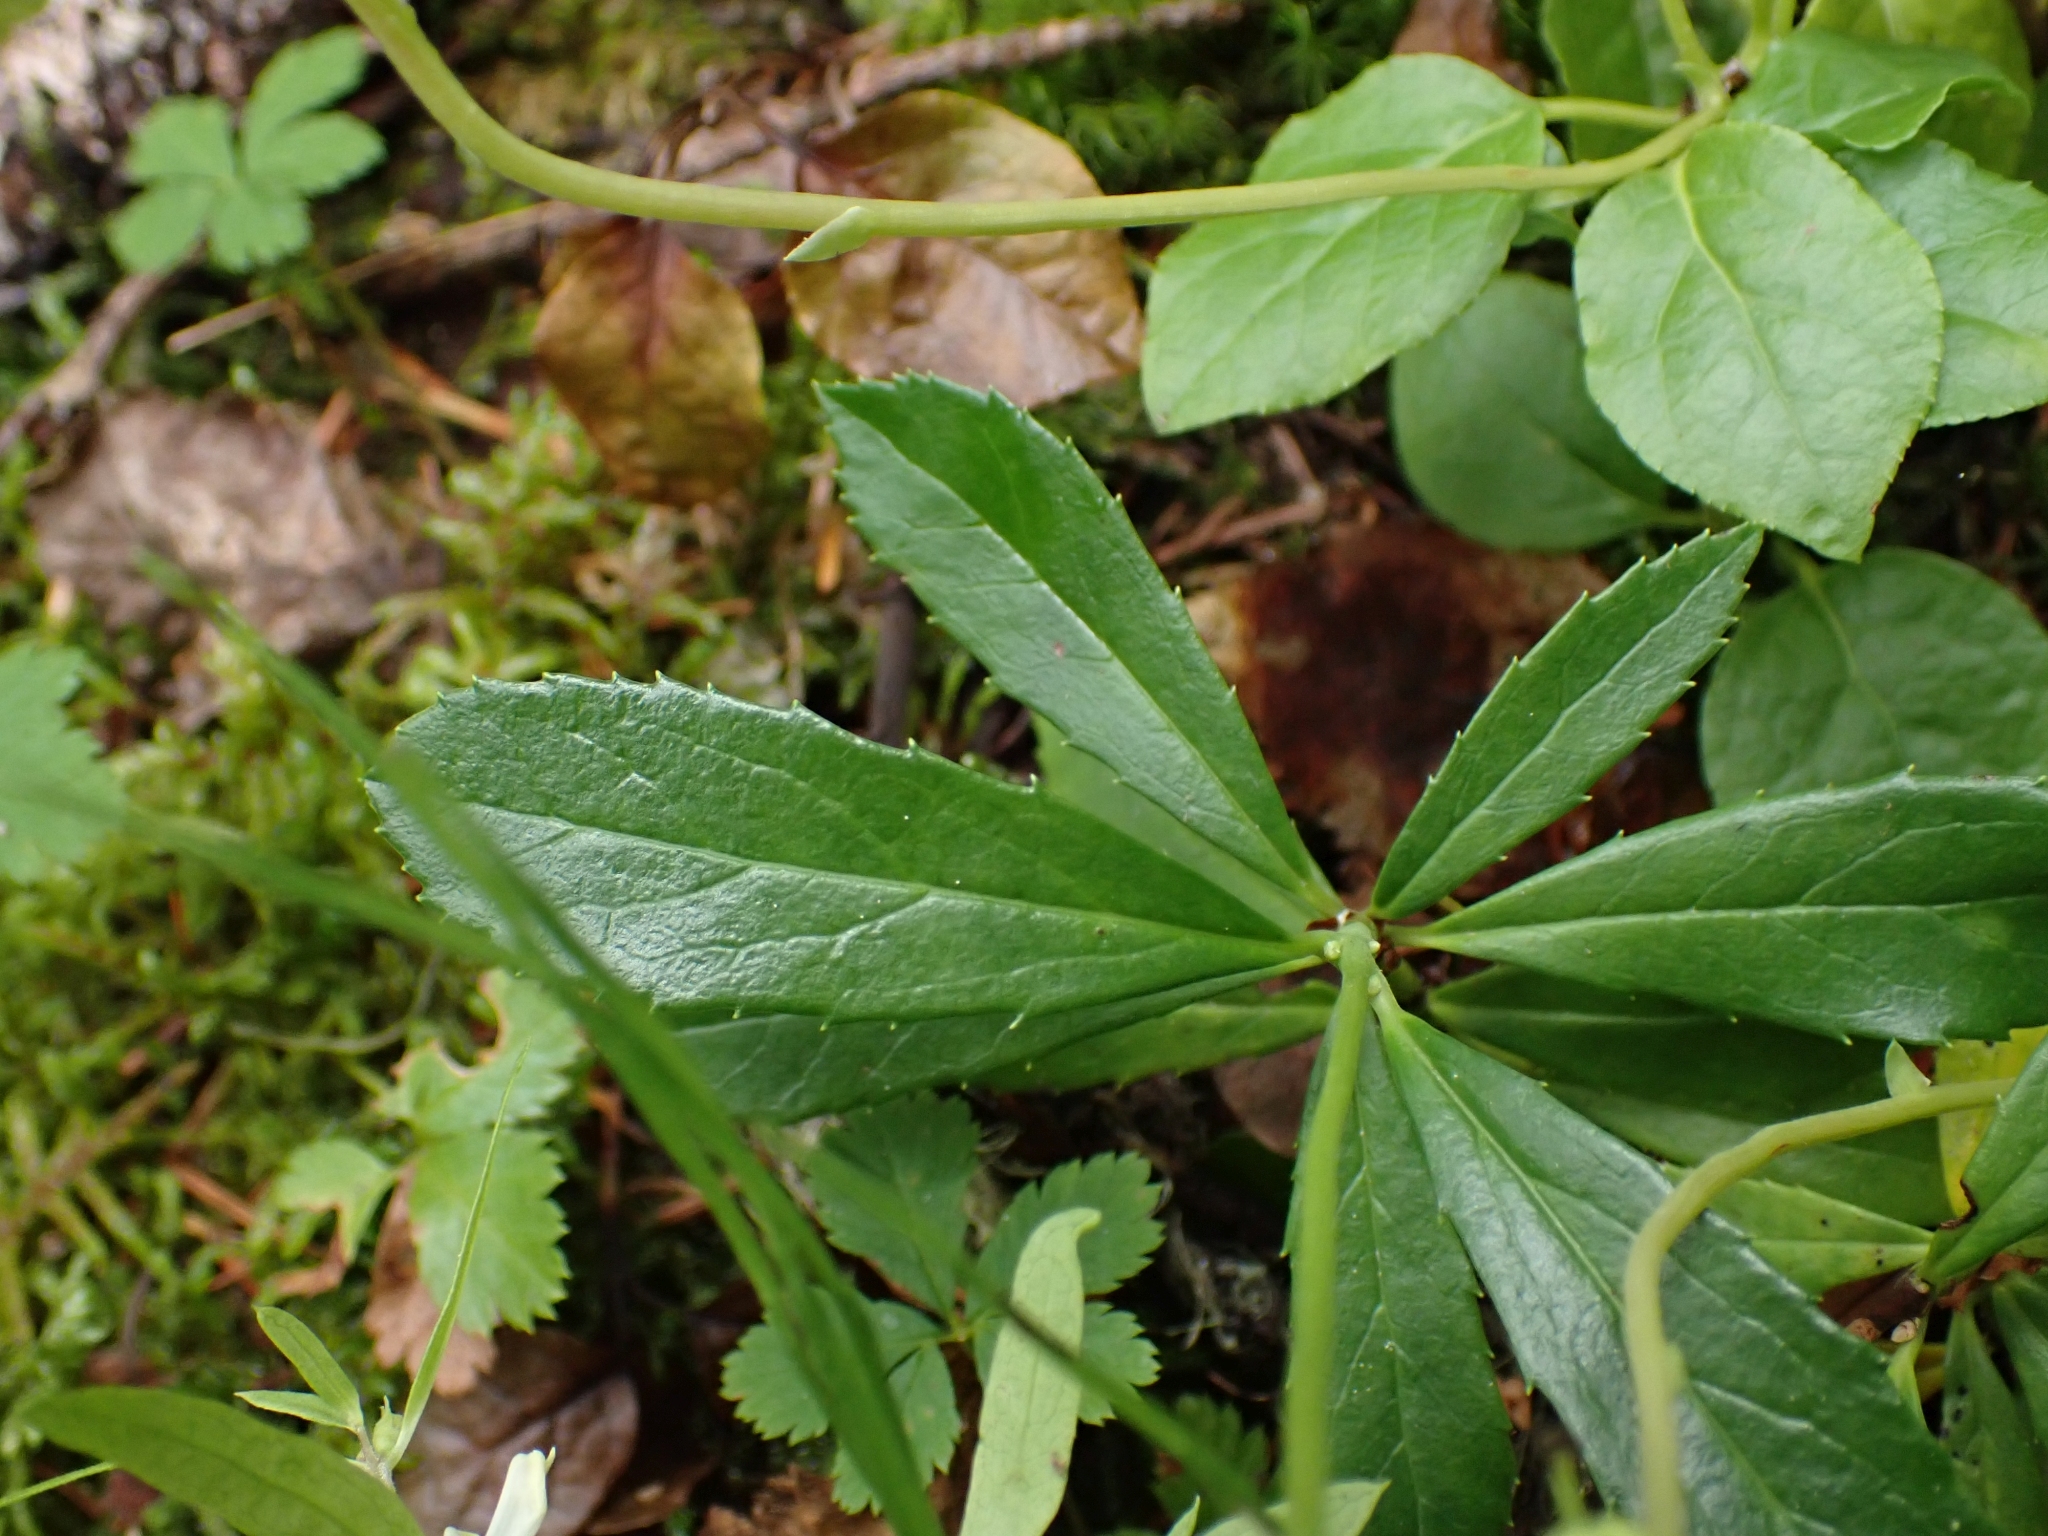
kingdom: Plantae
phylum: Tracheophyta
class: Magnoliopsida
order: Ericales
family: Ericaceae
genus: Chimaphila
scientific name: Chimaphila umbellata
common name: Pipsissewa
